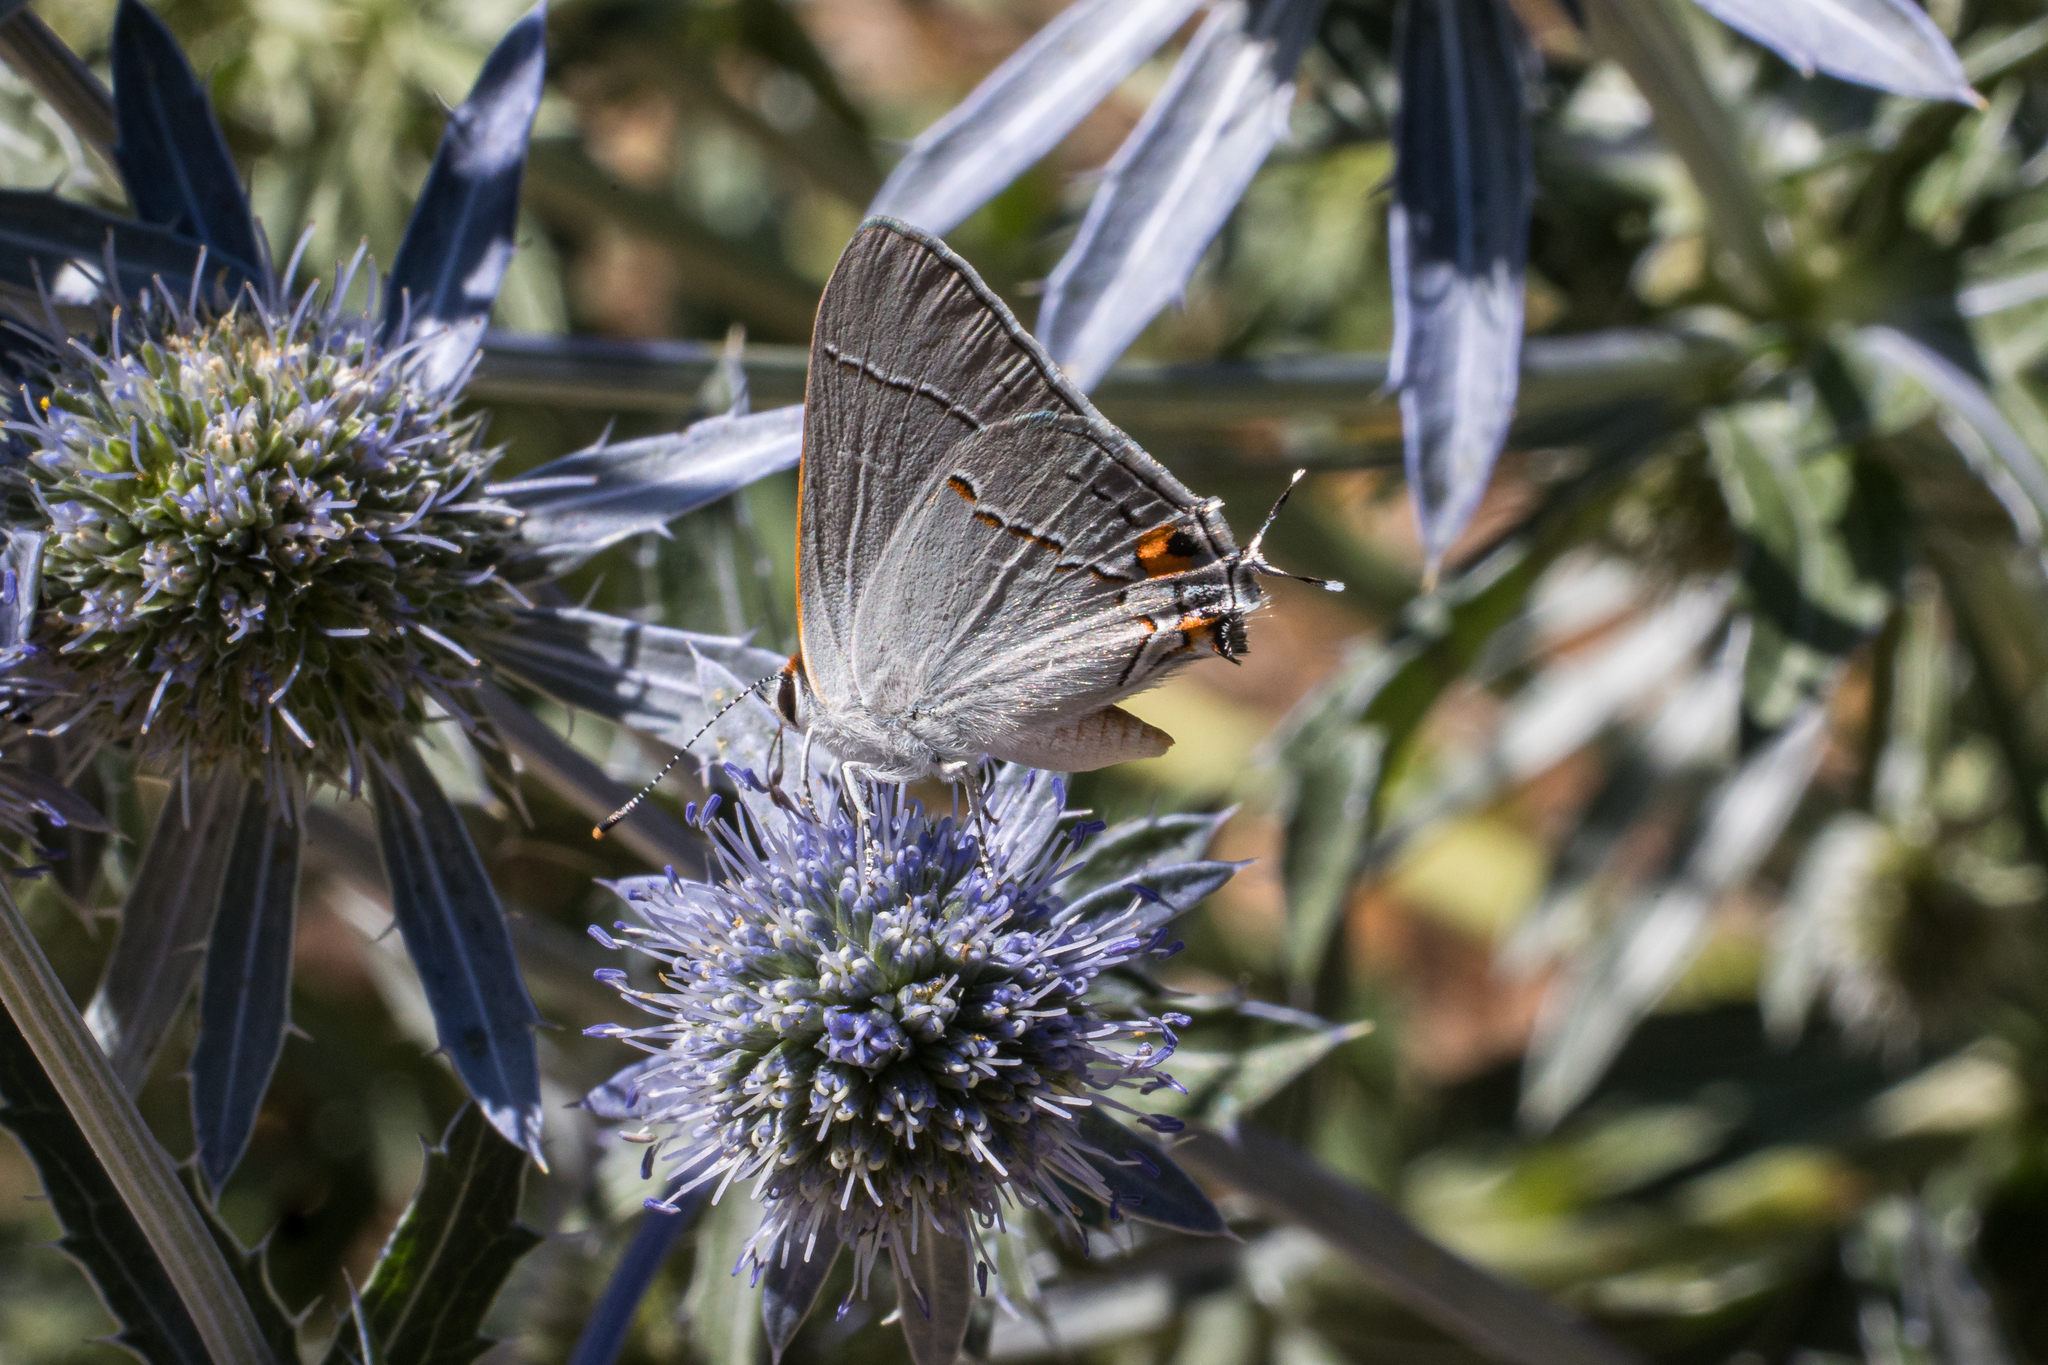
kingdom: Animalia
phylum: Arthropoda
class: Insecta
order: Lepidoptera
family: Lycaenidae
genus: Strymon
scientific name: Strymon melinus
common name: Gray hairstreak
